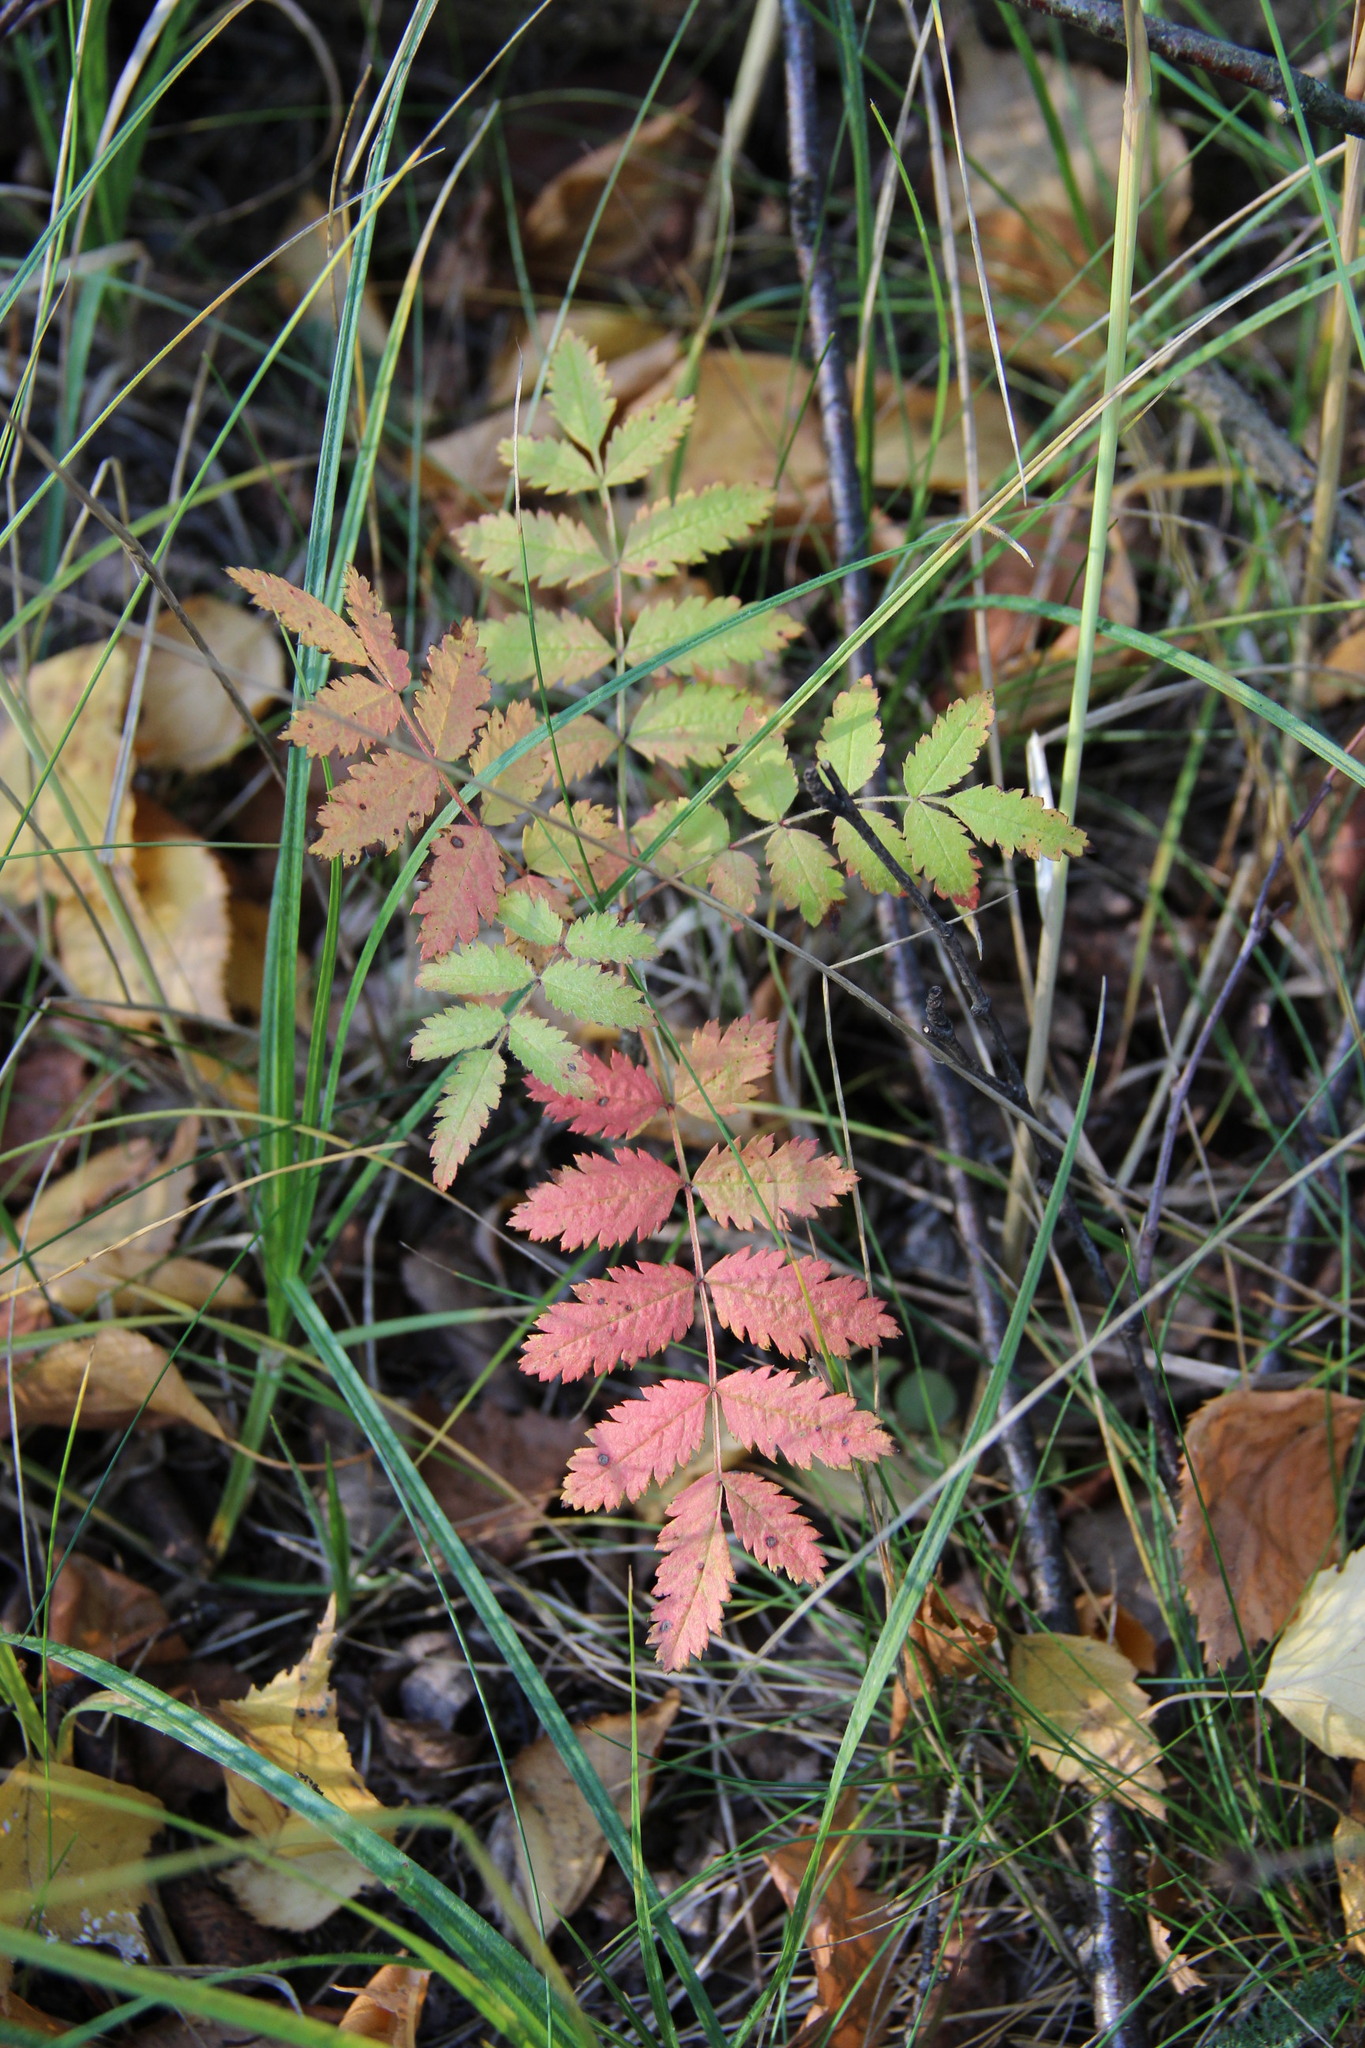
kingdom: Plantae
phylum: Tracheophyta
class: Magnoliopsida
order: Rosales
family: Rosaceae
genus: Sorbus
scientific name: Sorbus aucuparia
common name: Rowan
